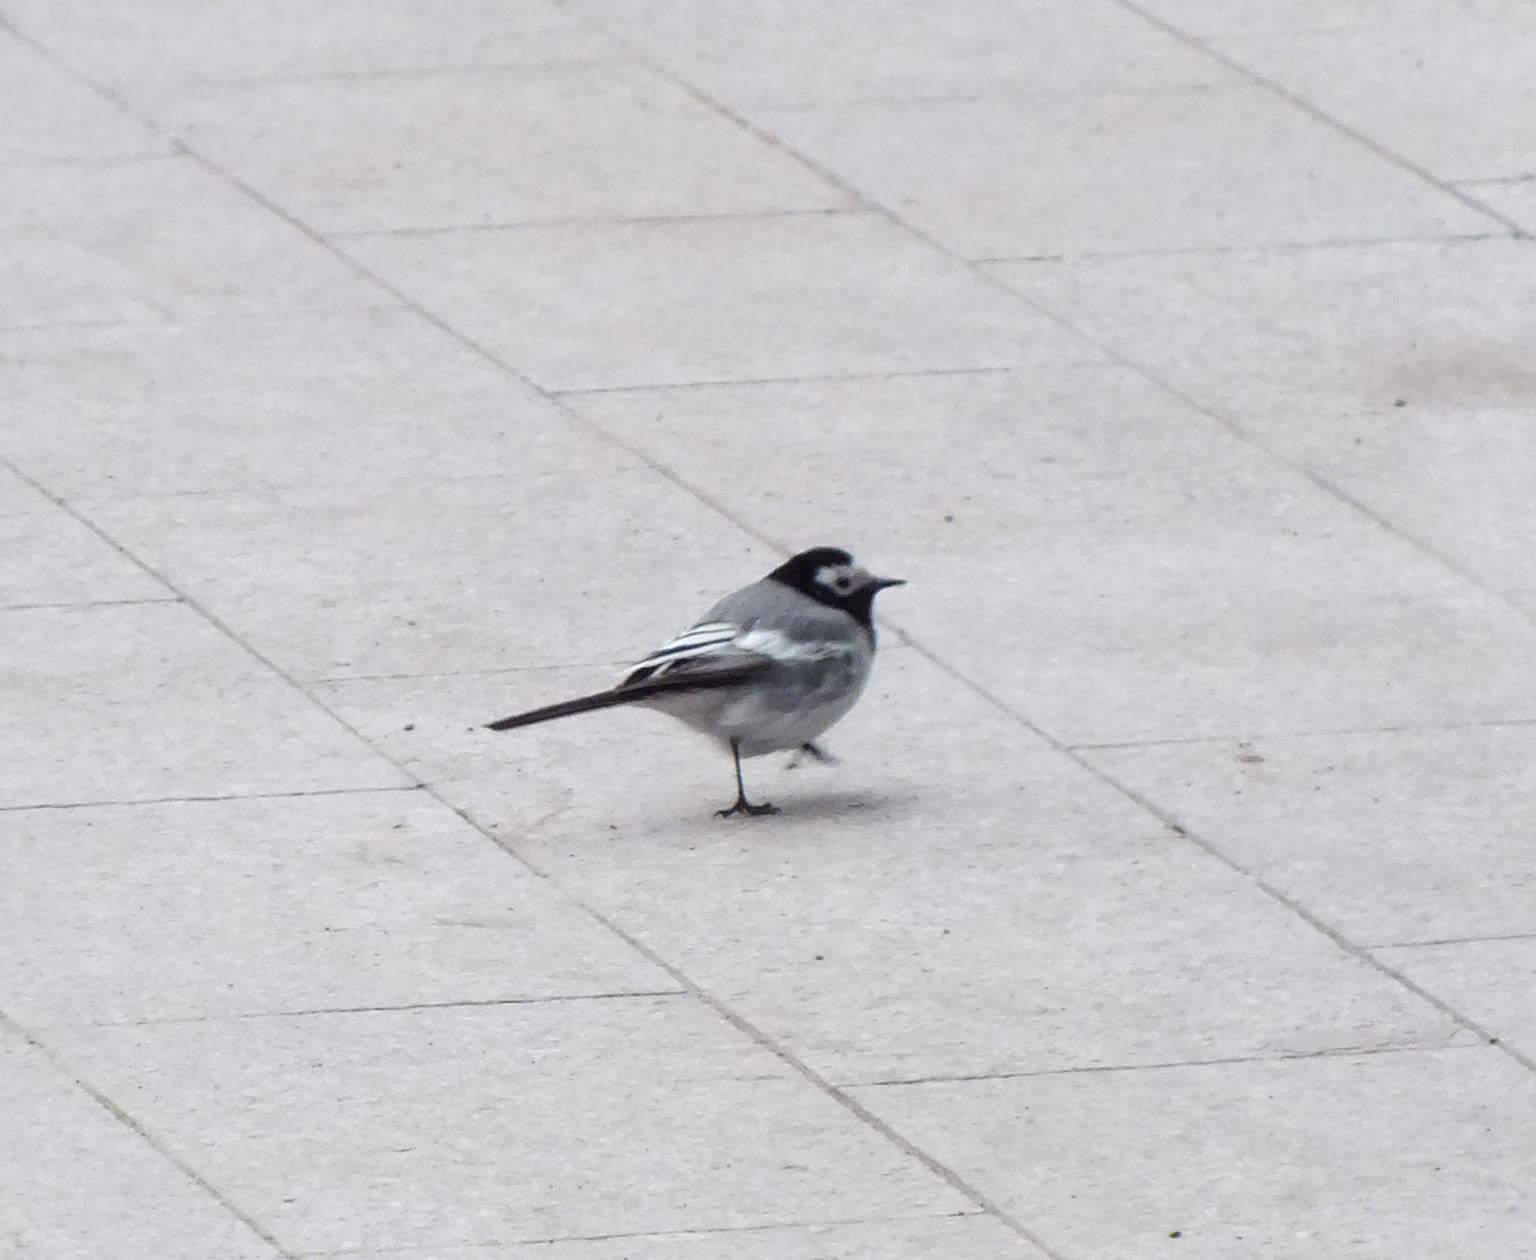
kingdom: Animalia
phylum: Chordata
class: Aves
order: Passeriformes
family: Motacillidae
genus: Motacilla
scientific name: Motacilla alba
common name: White wagtail
